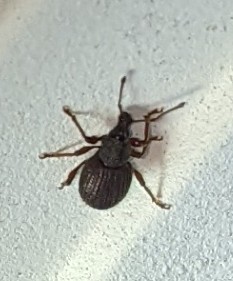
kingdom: Animalia
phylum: Arthropoda
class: Insecta
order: Coleoptera
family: Curculionidae
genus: Otiorhynchus
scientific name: Otiorhynchus rugosostriatus
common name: Weevil
